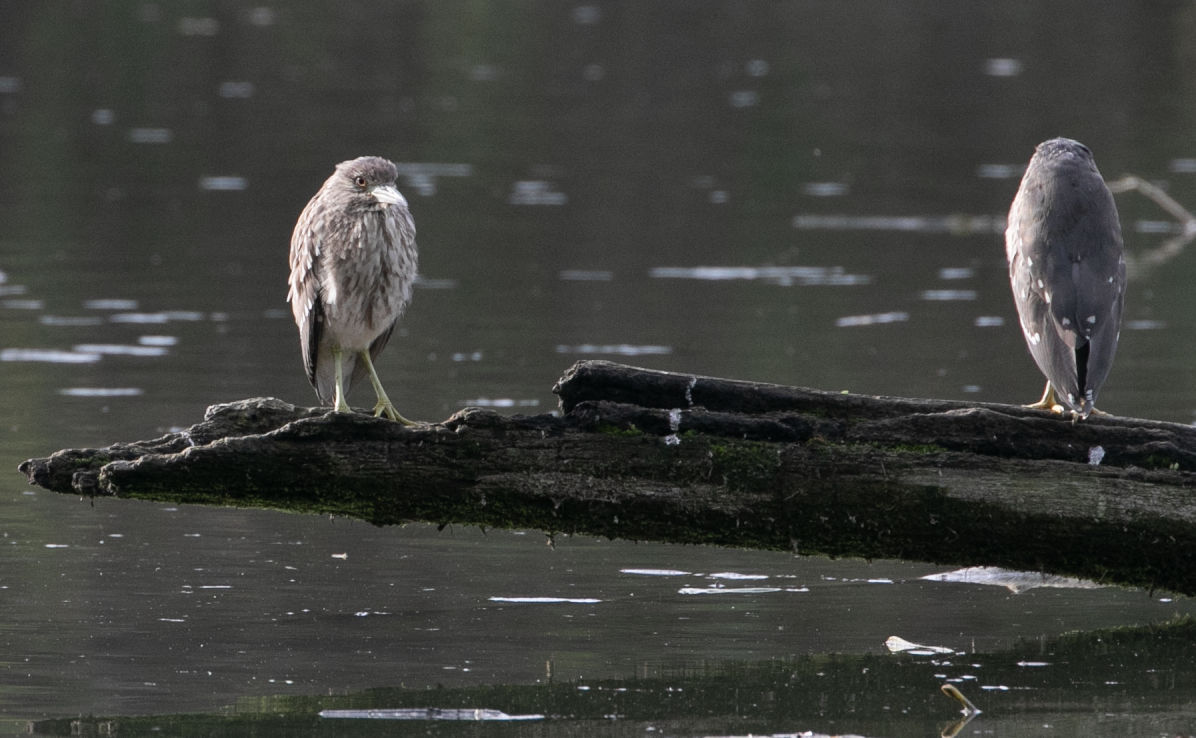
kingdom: Animalia
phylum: Chordata
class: Aves
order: Pelecaniformes
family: Ardeidae
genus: Nycticorax
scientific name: Nycticorax nycticorax
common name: Black-crowned night heron
